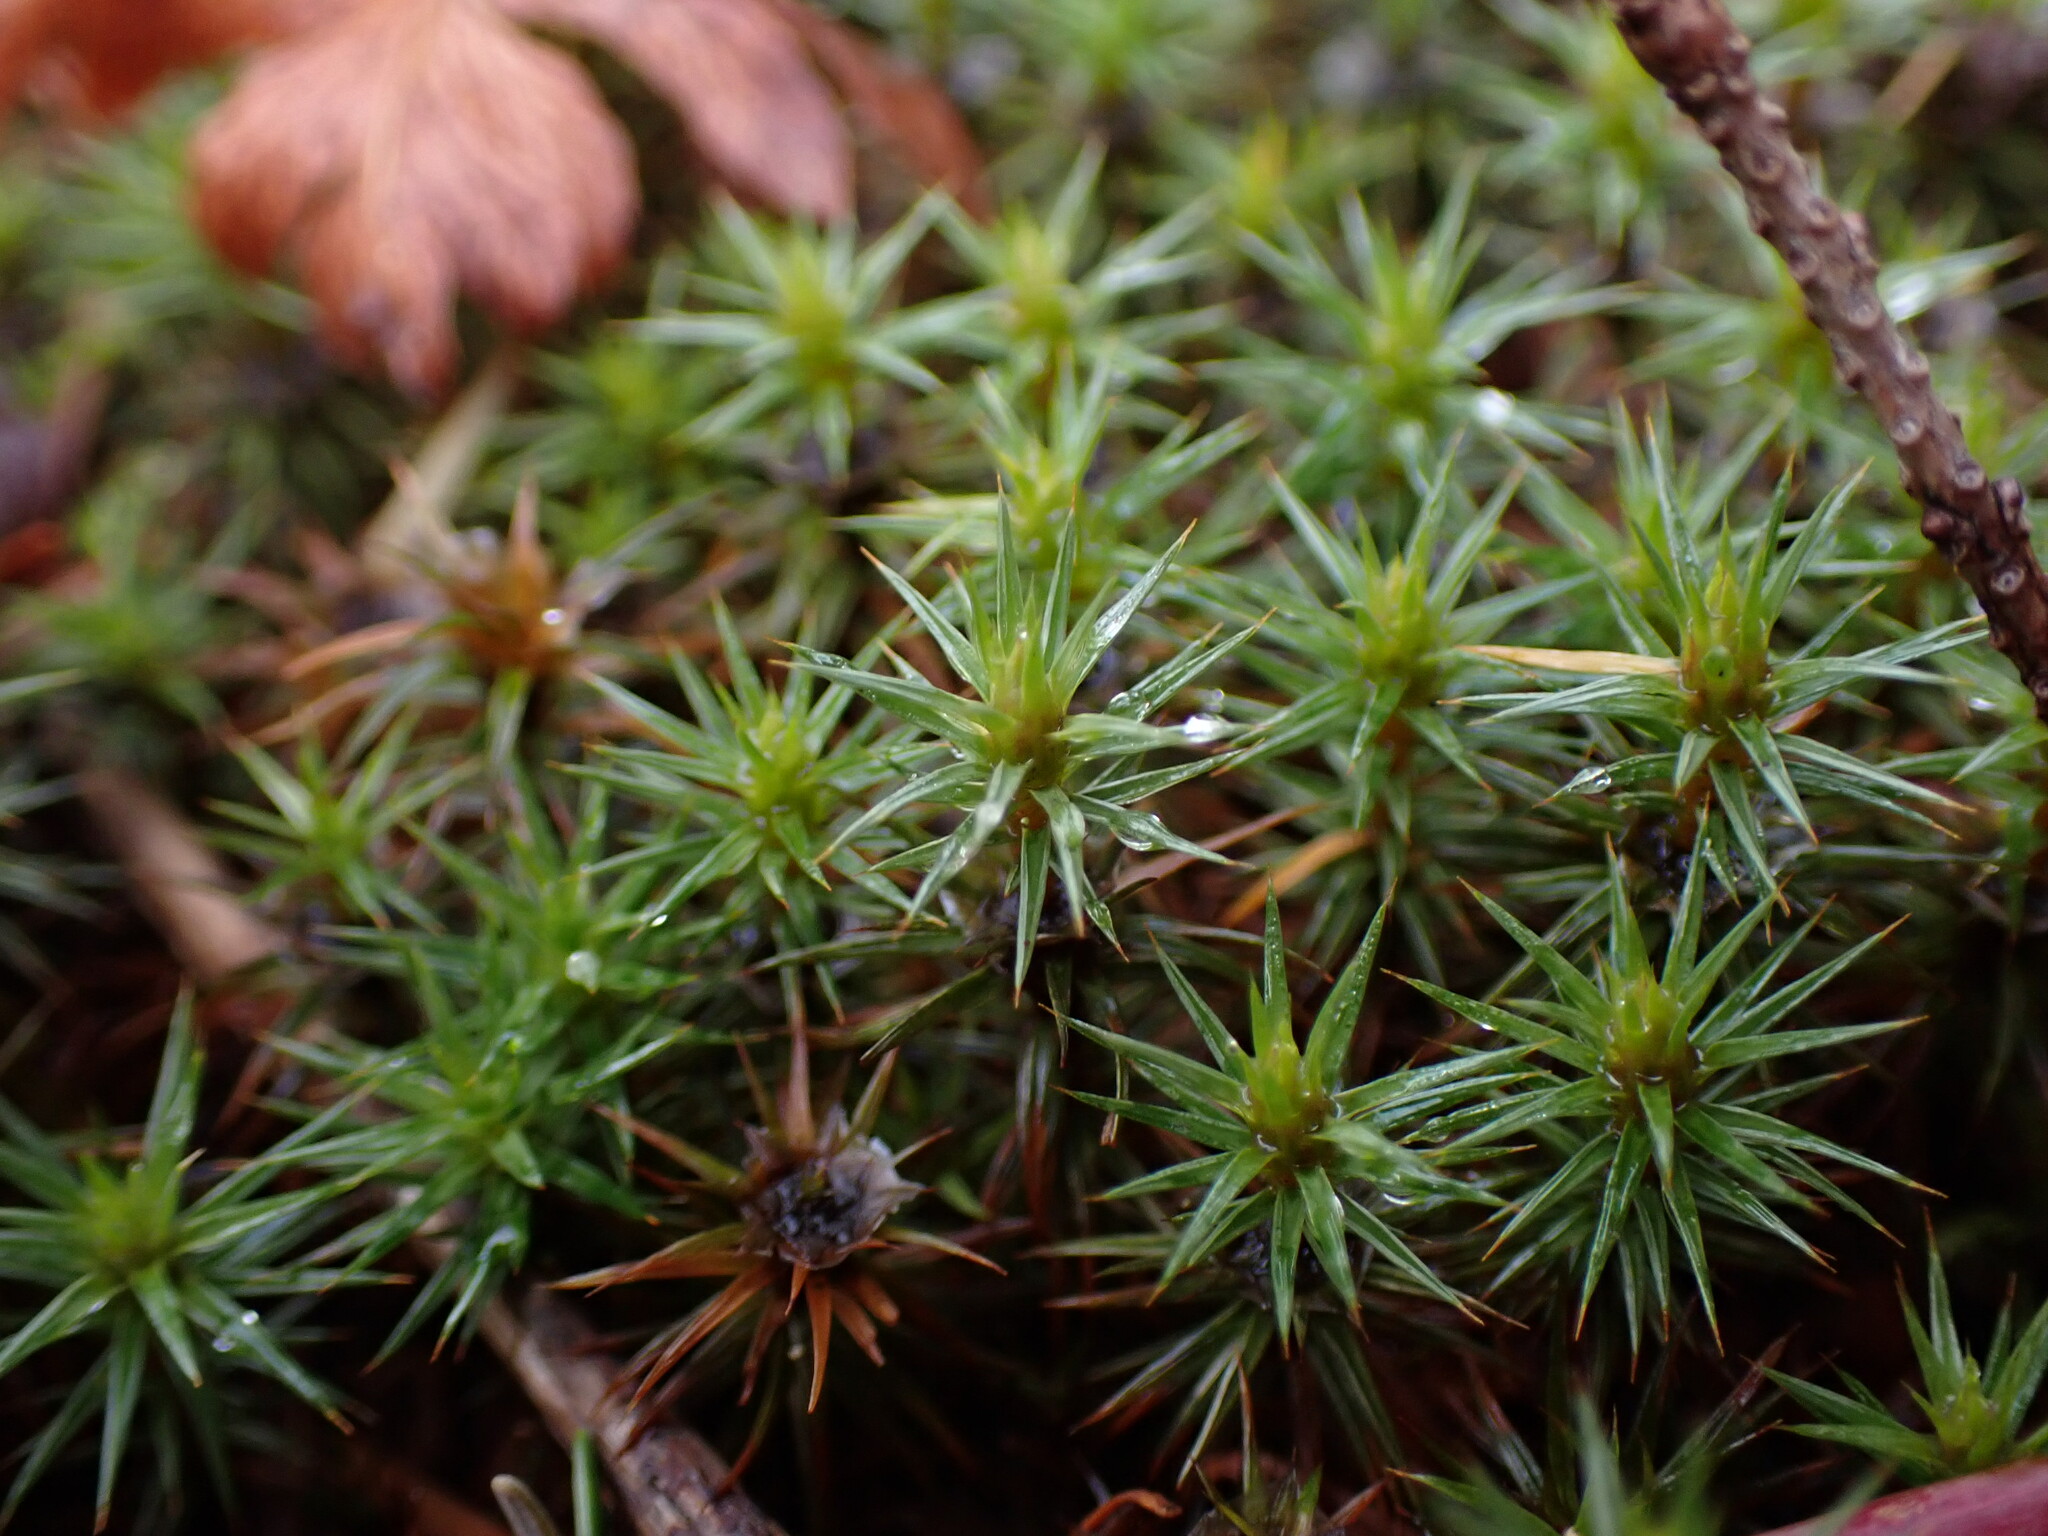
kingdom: Plantae
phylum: Bryophyta
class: Polytrichopsida
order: Polytrichales
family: Polytrichaceae
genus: Polytrichum
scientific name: Polytrichum juniperinum
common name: Juniper haircap moss
